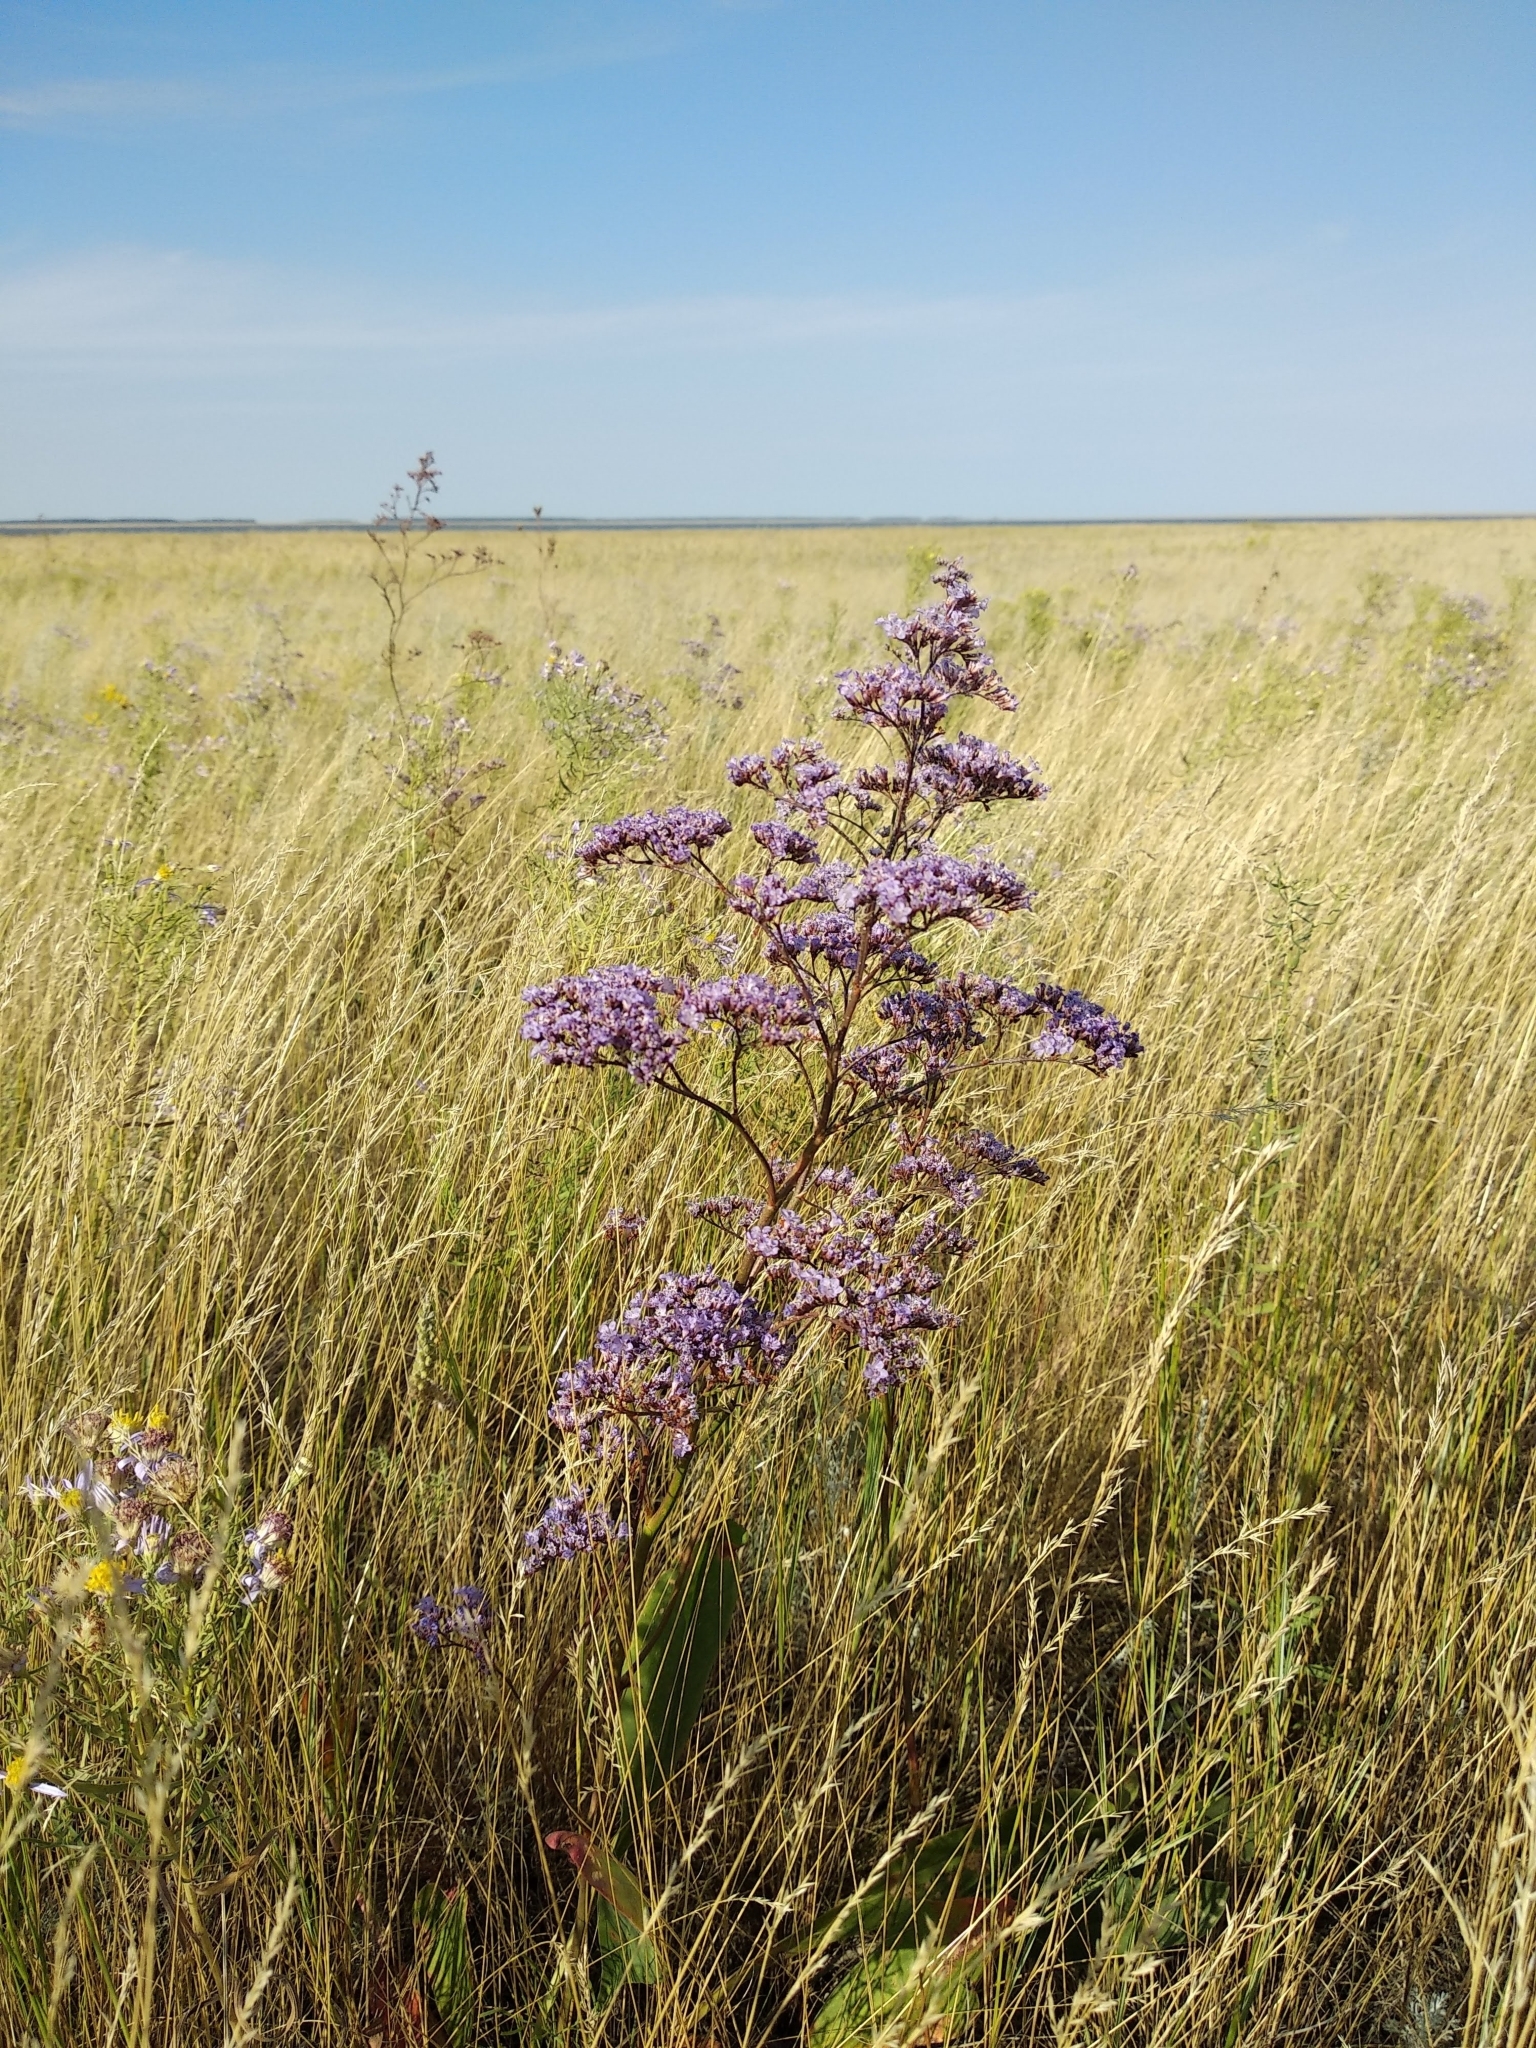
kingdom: Plantae
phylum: Tracheophyta
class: Magnoliopsida
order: Caryophyllales
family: Plumbaginaceae
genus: Limonium
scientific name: Limonium gmelini
